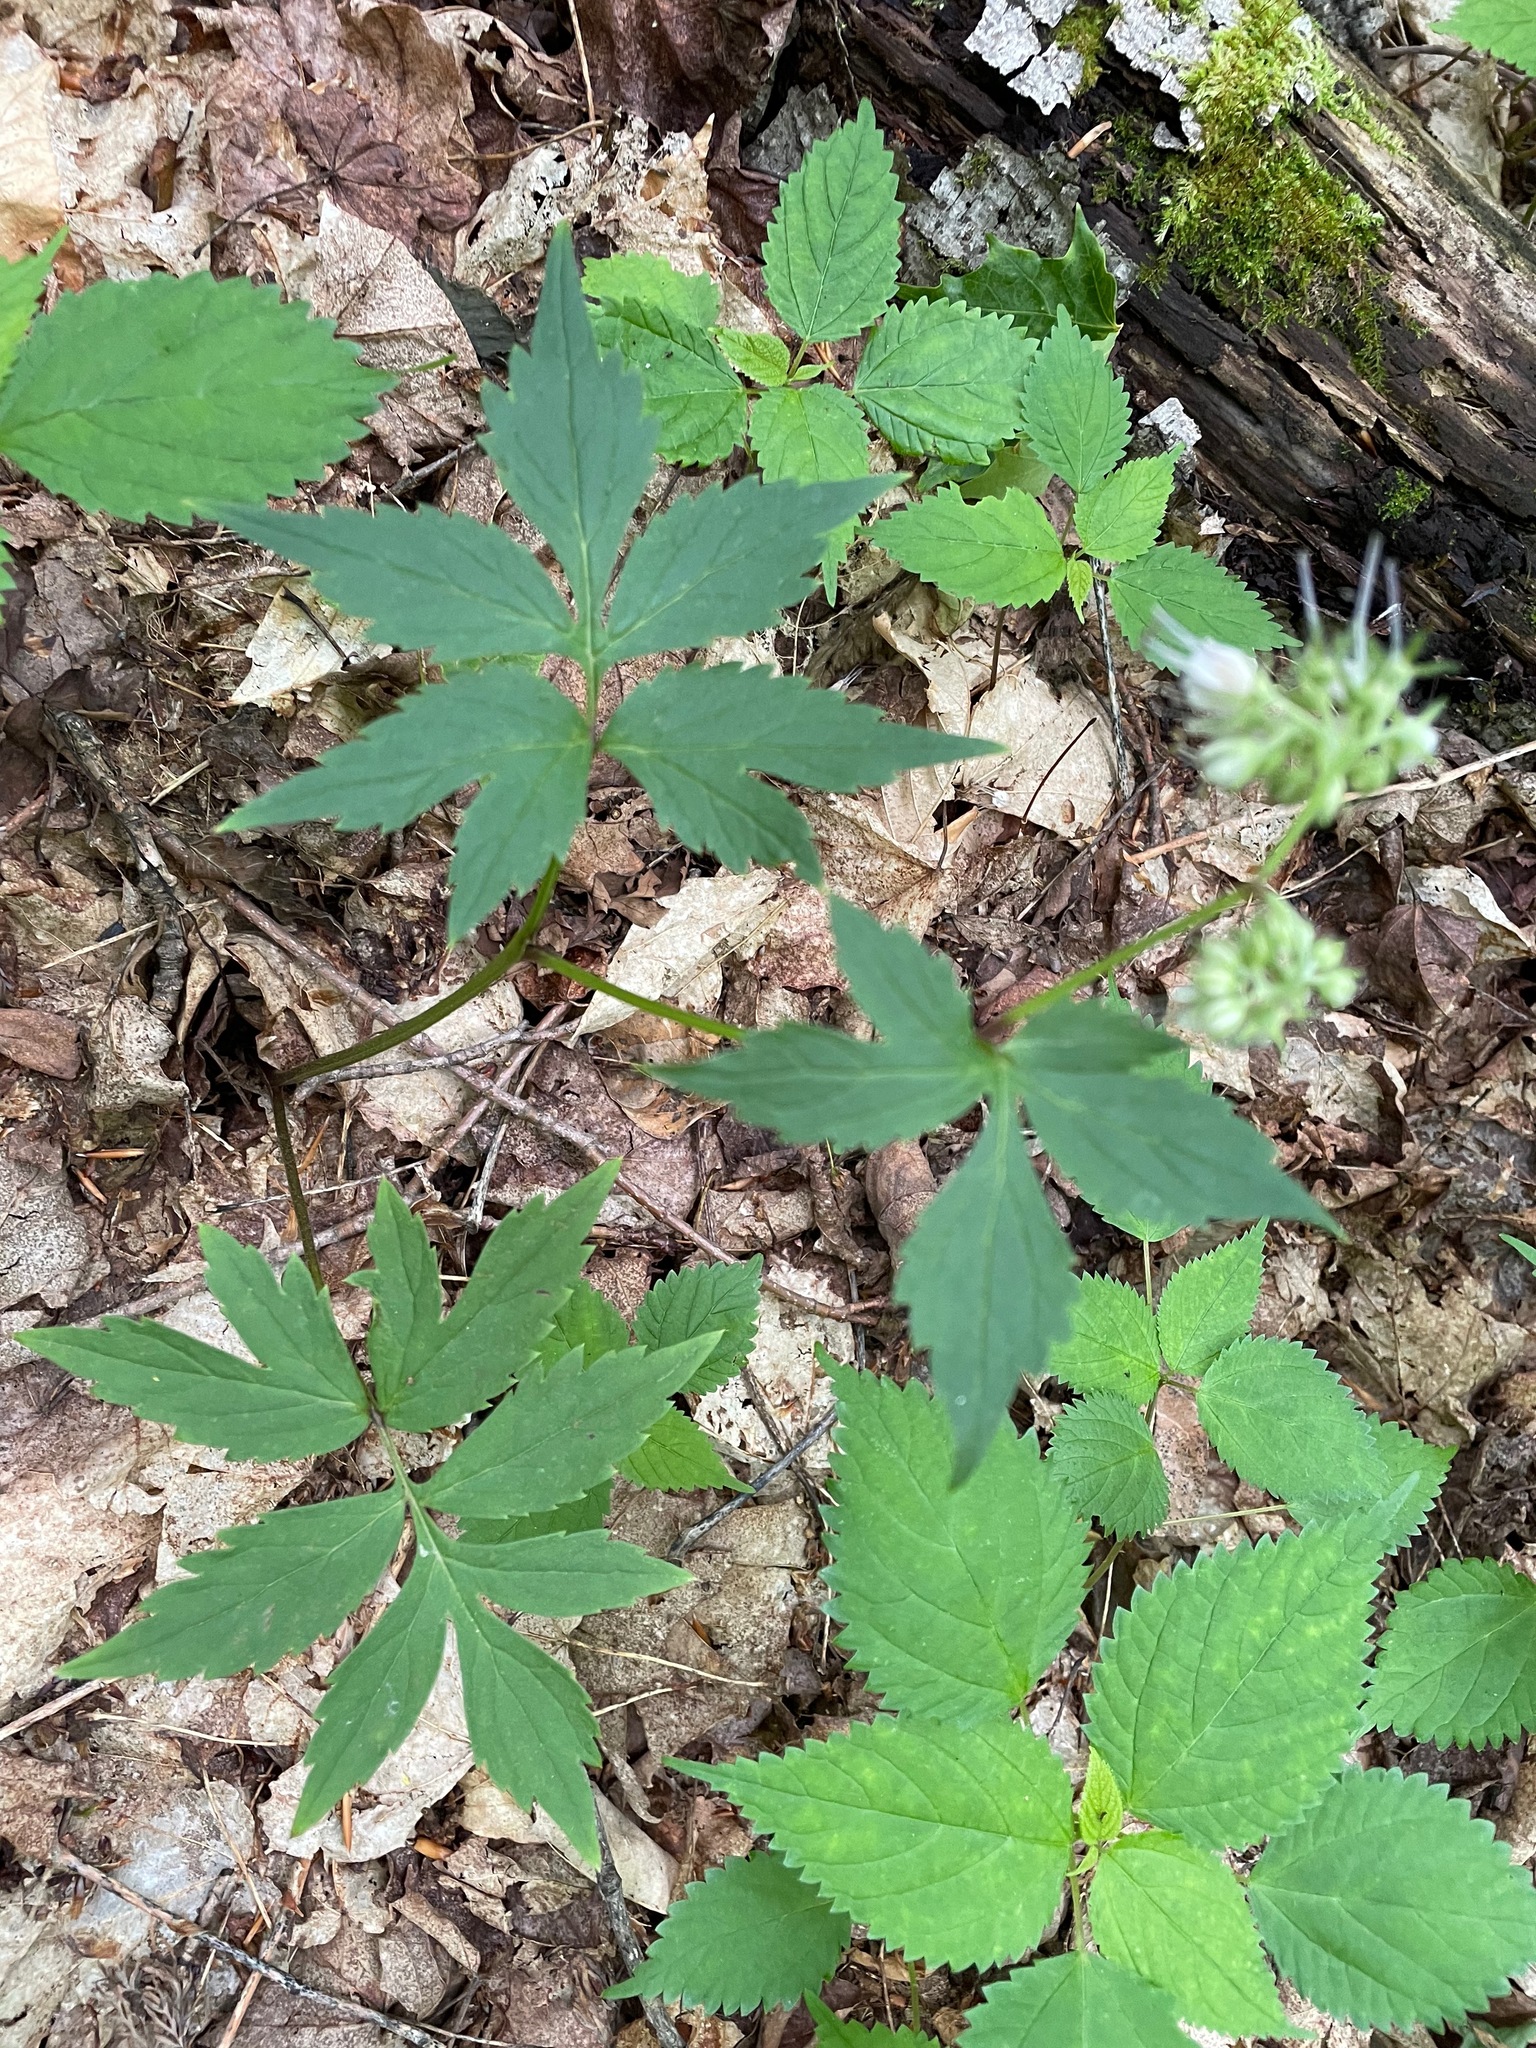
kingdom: Plantae
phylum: Tracheophyta
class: Magnoliopsida
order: Boraginales
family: Hydrophyllaceae
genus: Hydrophyllum
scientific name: Hydrophyllum virginianum
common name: Virginia waterleaf
